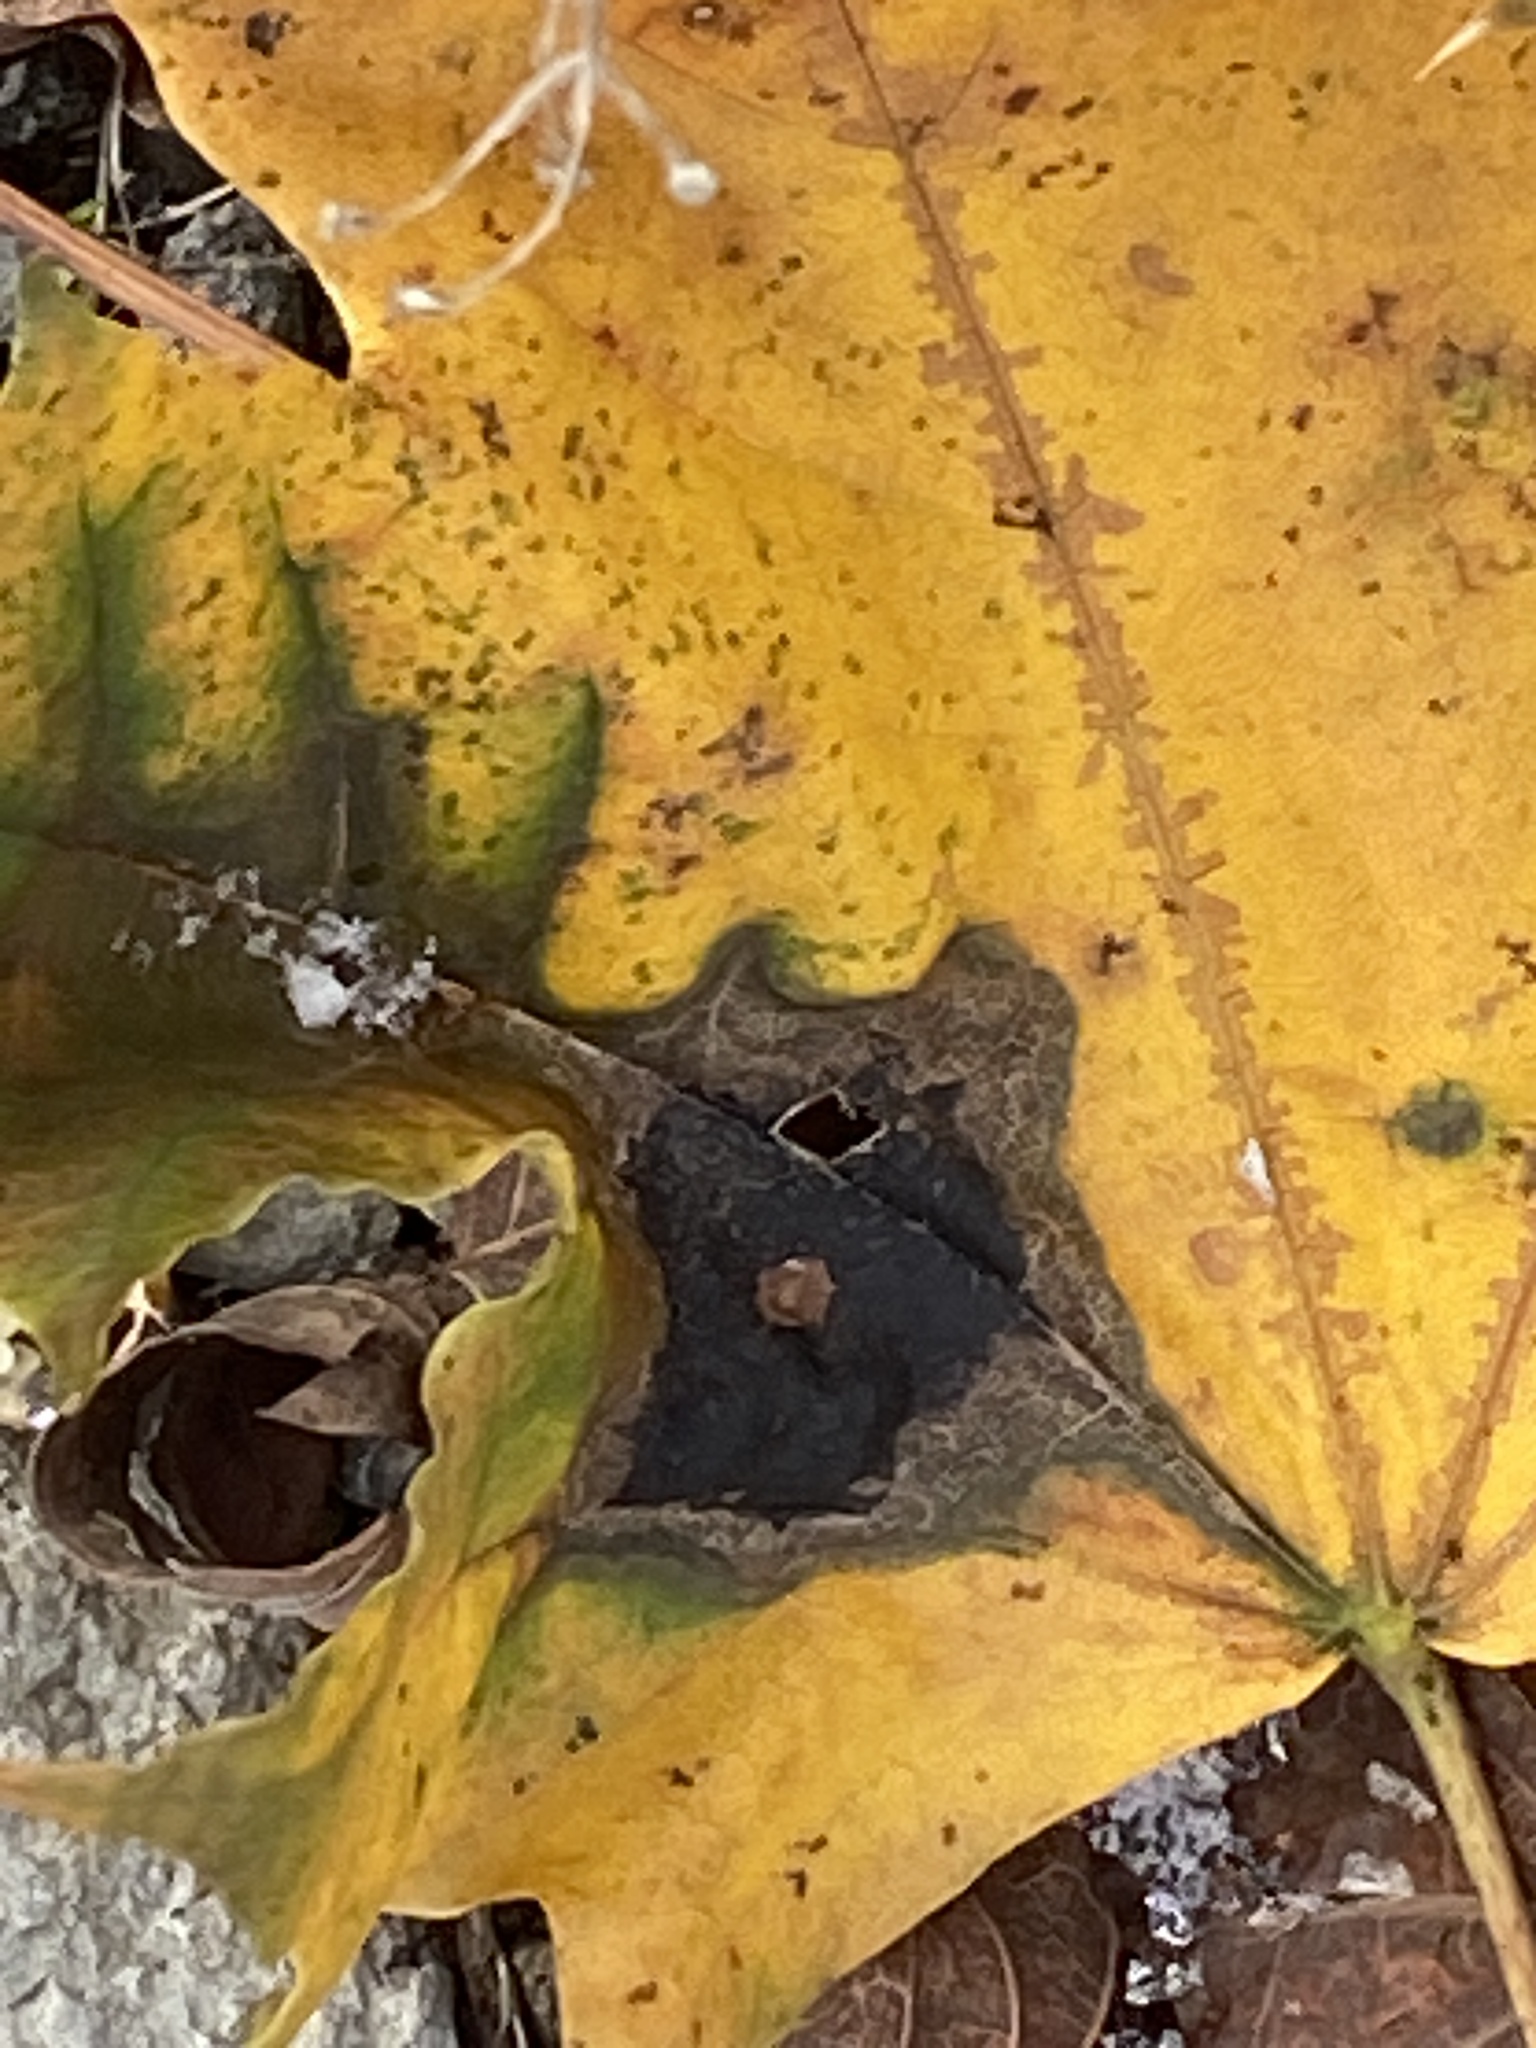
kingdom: Fungi
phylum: Ascomycota
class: Leotiomycetes
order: Rhytismatales
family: Rhytismataceae
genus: Rhytisma
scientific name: Rhytisma acerinum
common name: European tar spot
